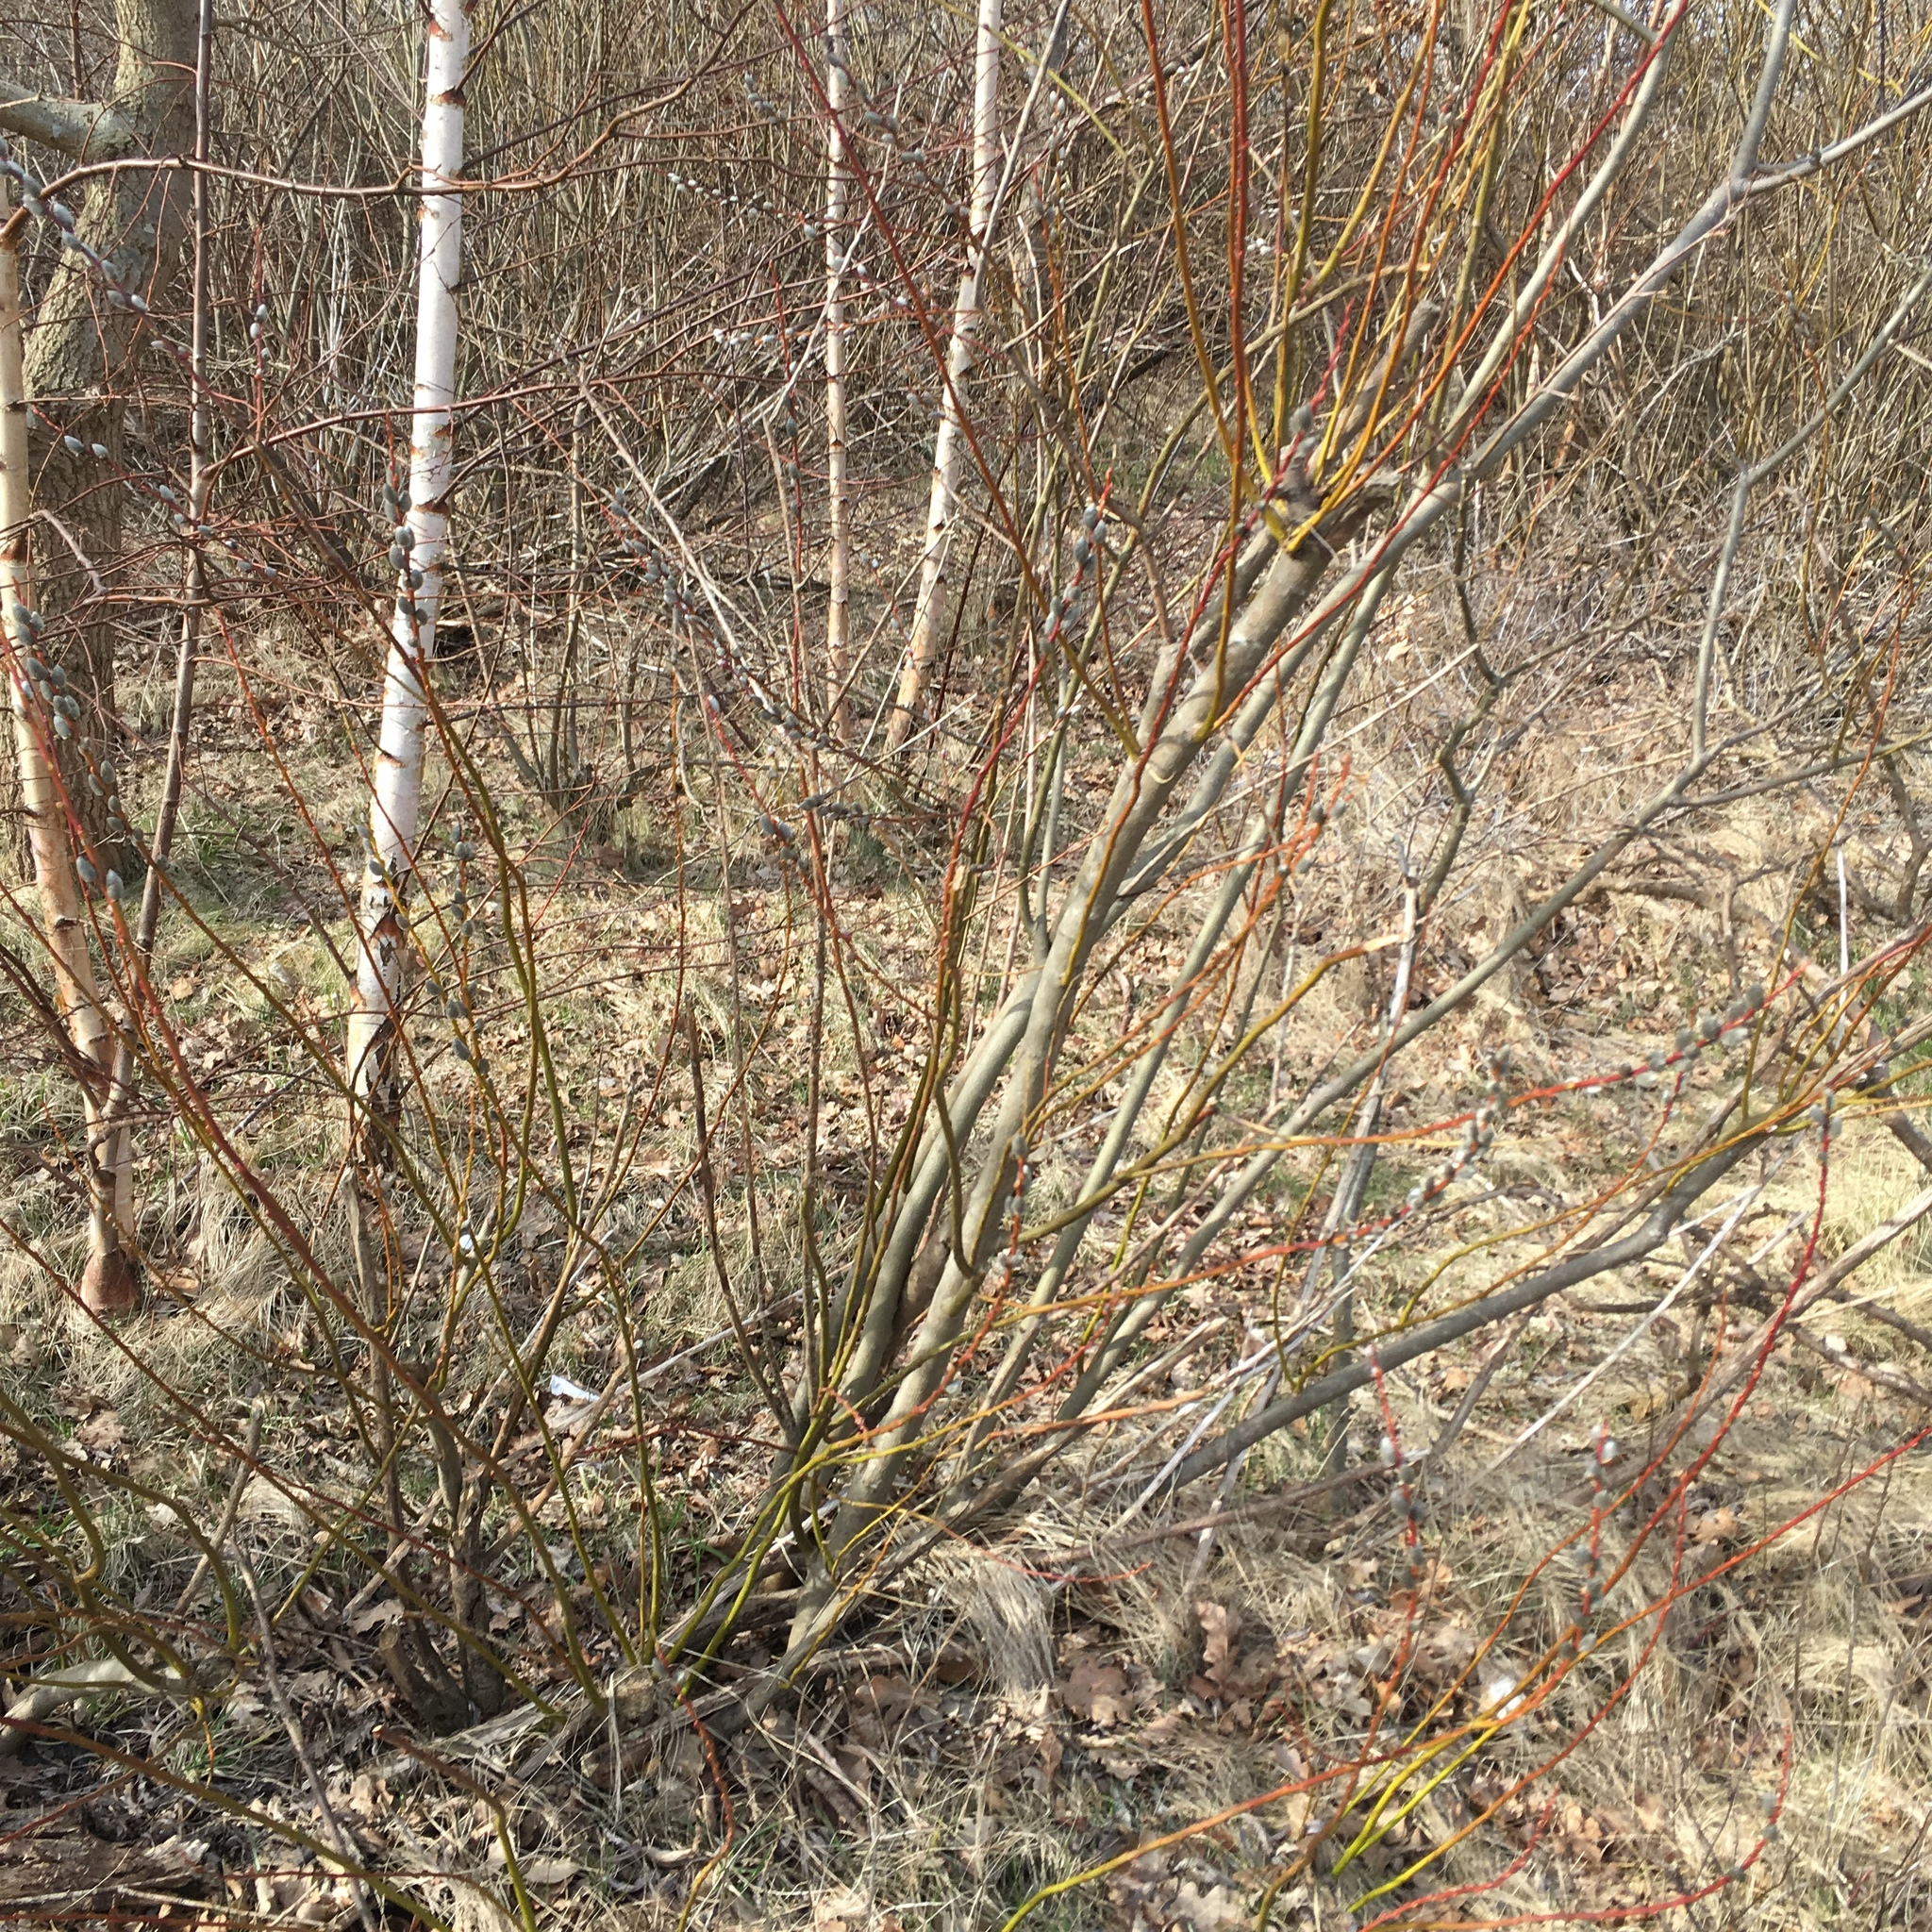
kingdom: Plantae
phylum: Tracheophyta
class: Magnoliopsida
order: Malpighiales
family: Salicaceae
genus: Salix
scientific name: Salix caprea
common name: Goat willow
